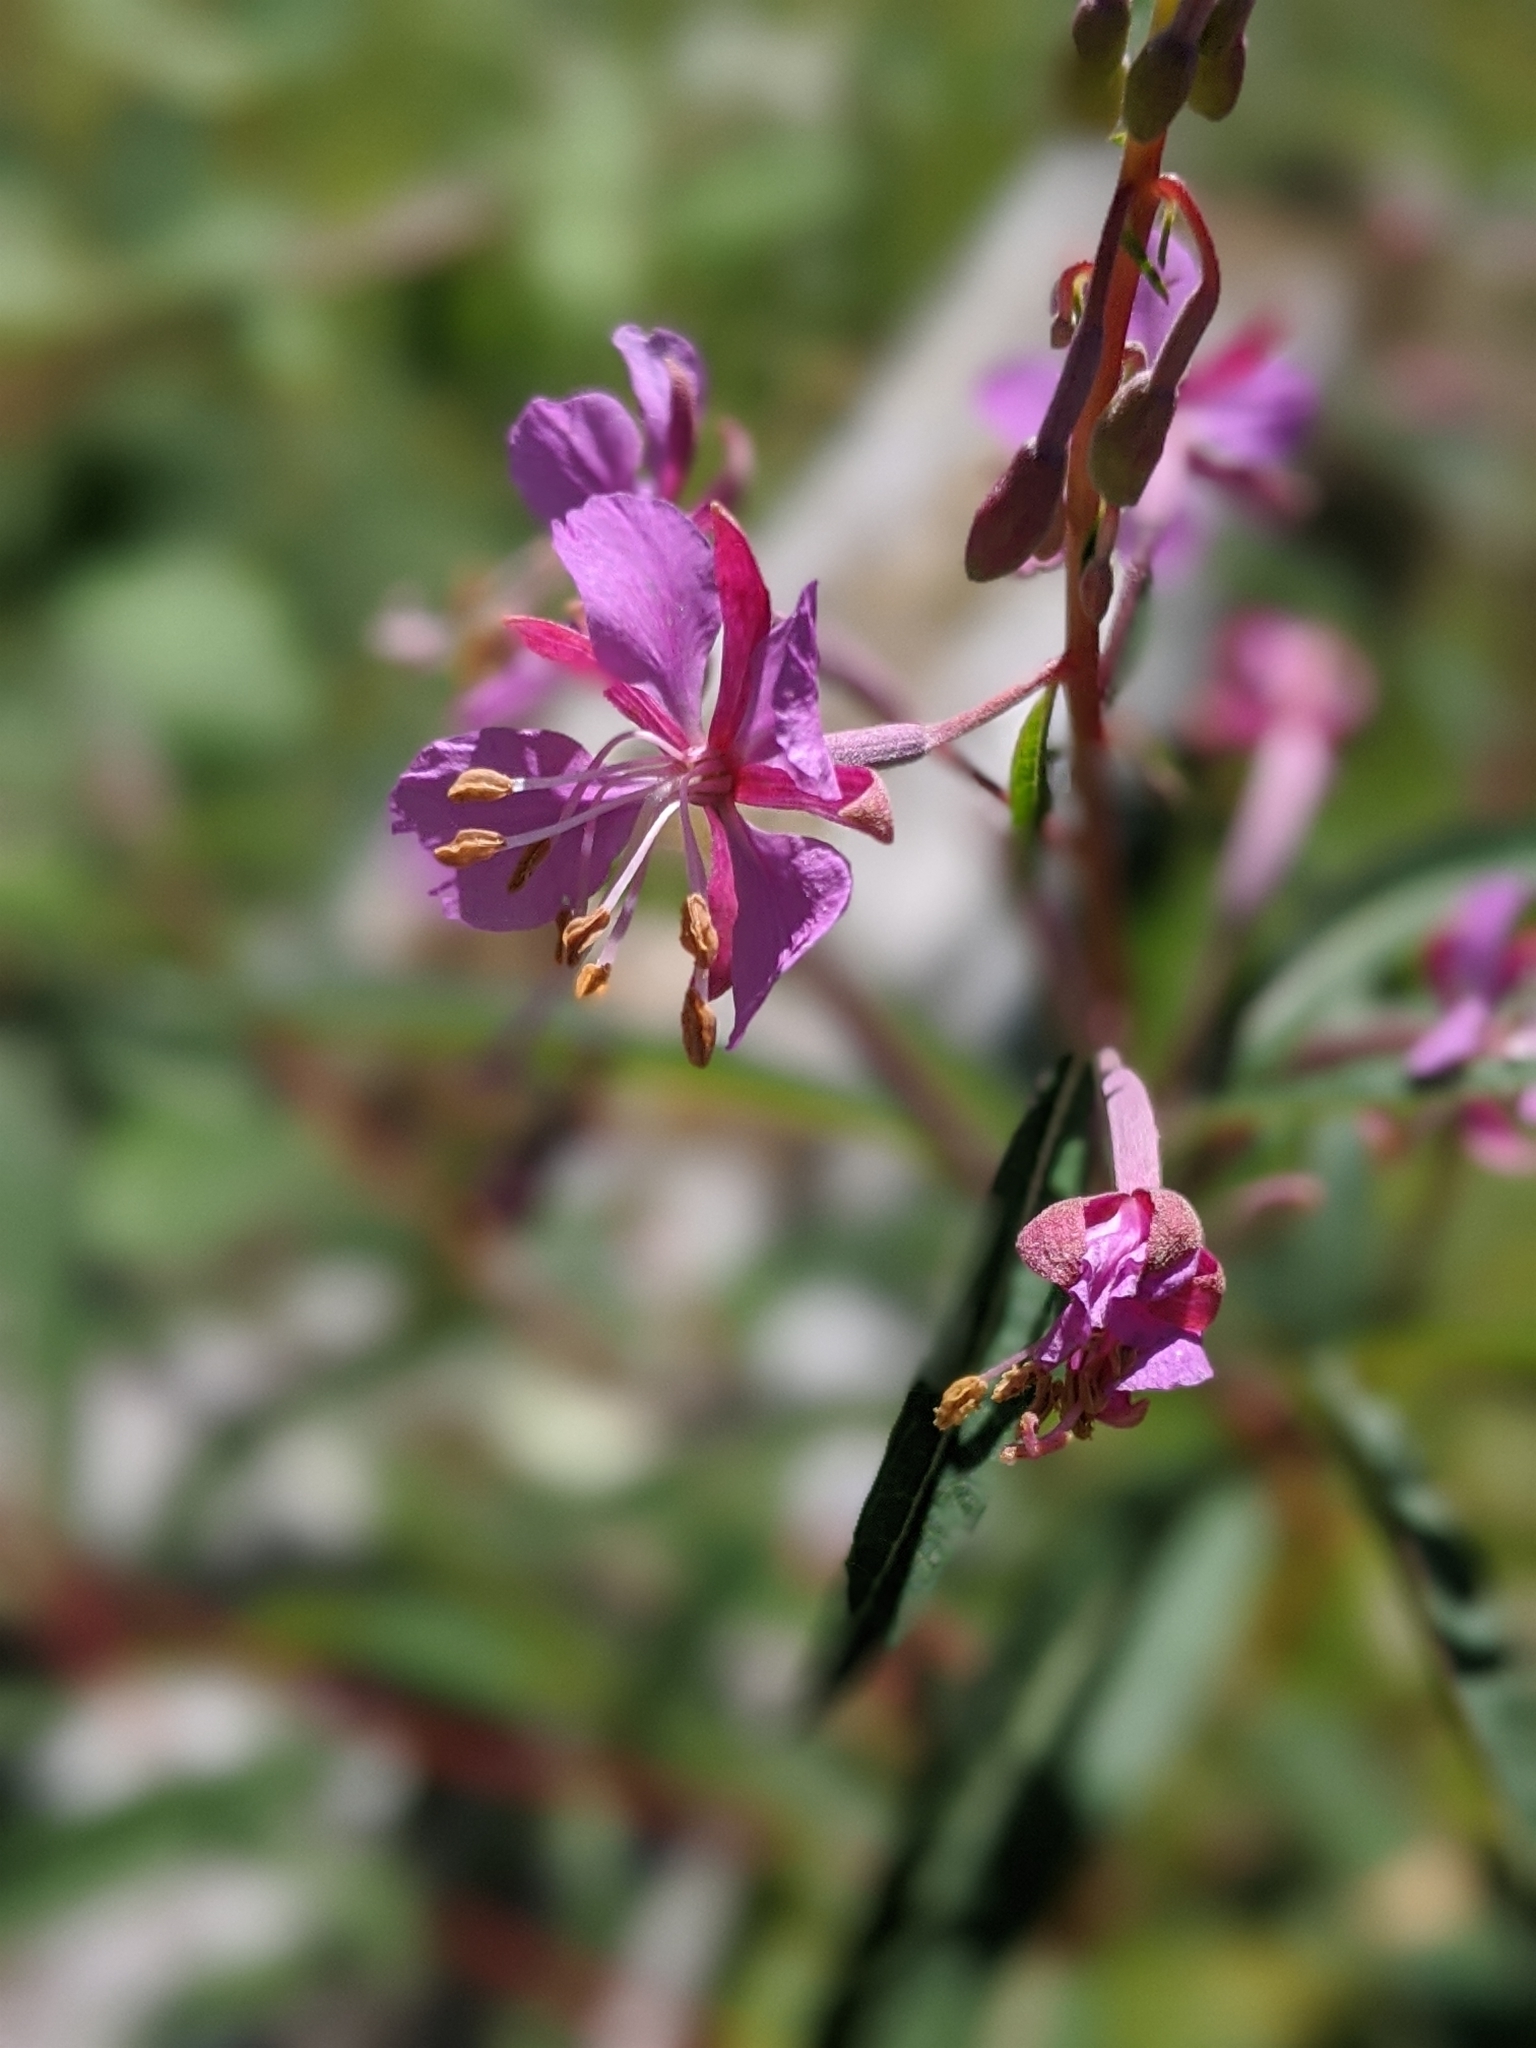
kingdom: Plantae
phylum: Tracheophyta
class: Magnoliopsida
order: Myrtales
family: Onagraceae
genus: Chamaenerion
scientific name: Chamaenerion angustifolium
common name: Fireweed
